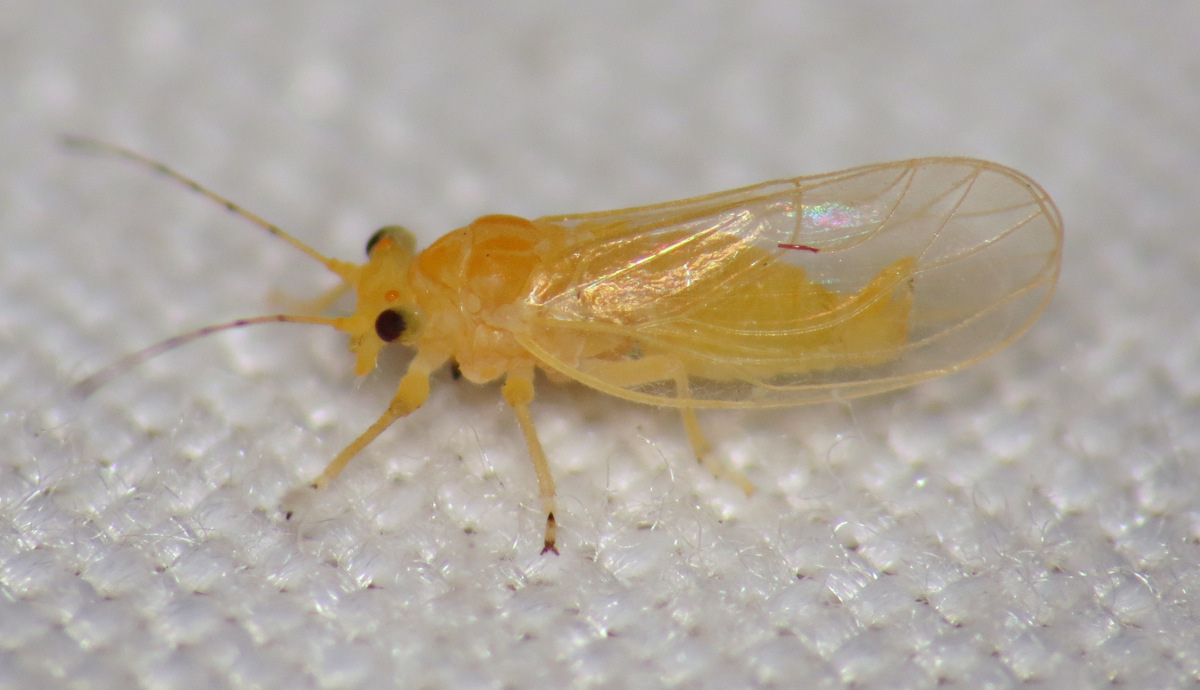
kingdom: Animalia
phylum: Arthropoda
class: Insecta
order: Hemiptera
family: Psyllidae
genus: Cacopsylla
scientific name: Cacopsylla annulata
